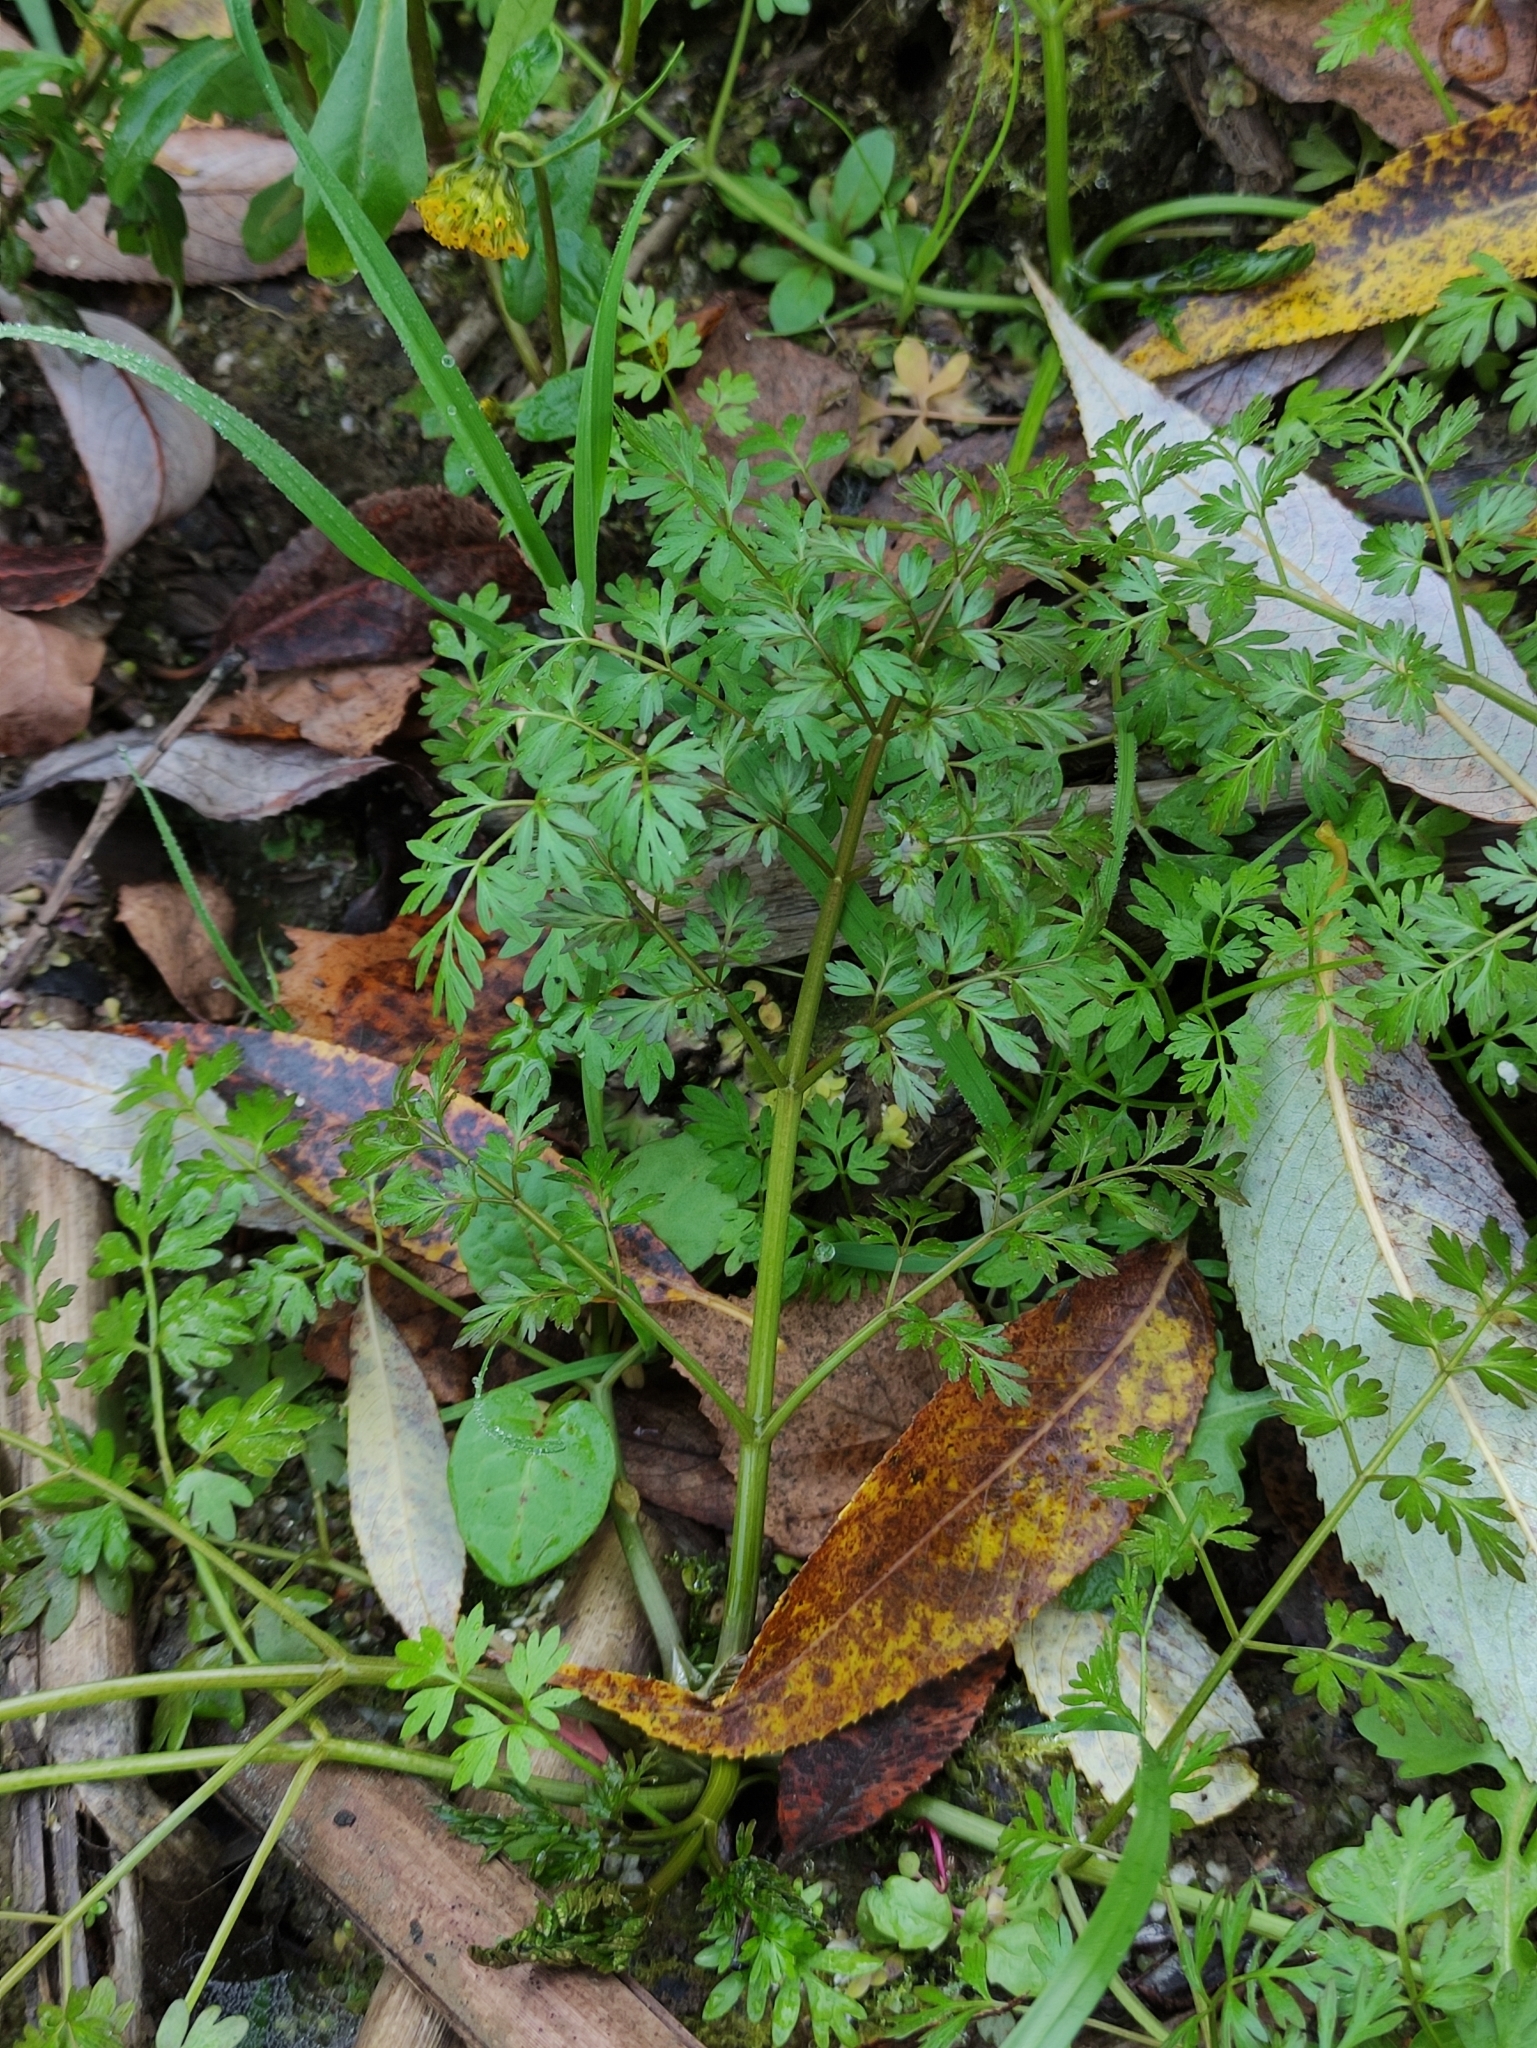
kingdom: Plantae
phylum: Tracheophyta
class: Magnoliopsida
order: Apiales
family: Apiaceae
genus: Oenanthe
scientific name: Oenanthe aquatica
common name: Fine-leaved water-dropwort
